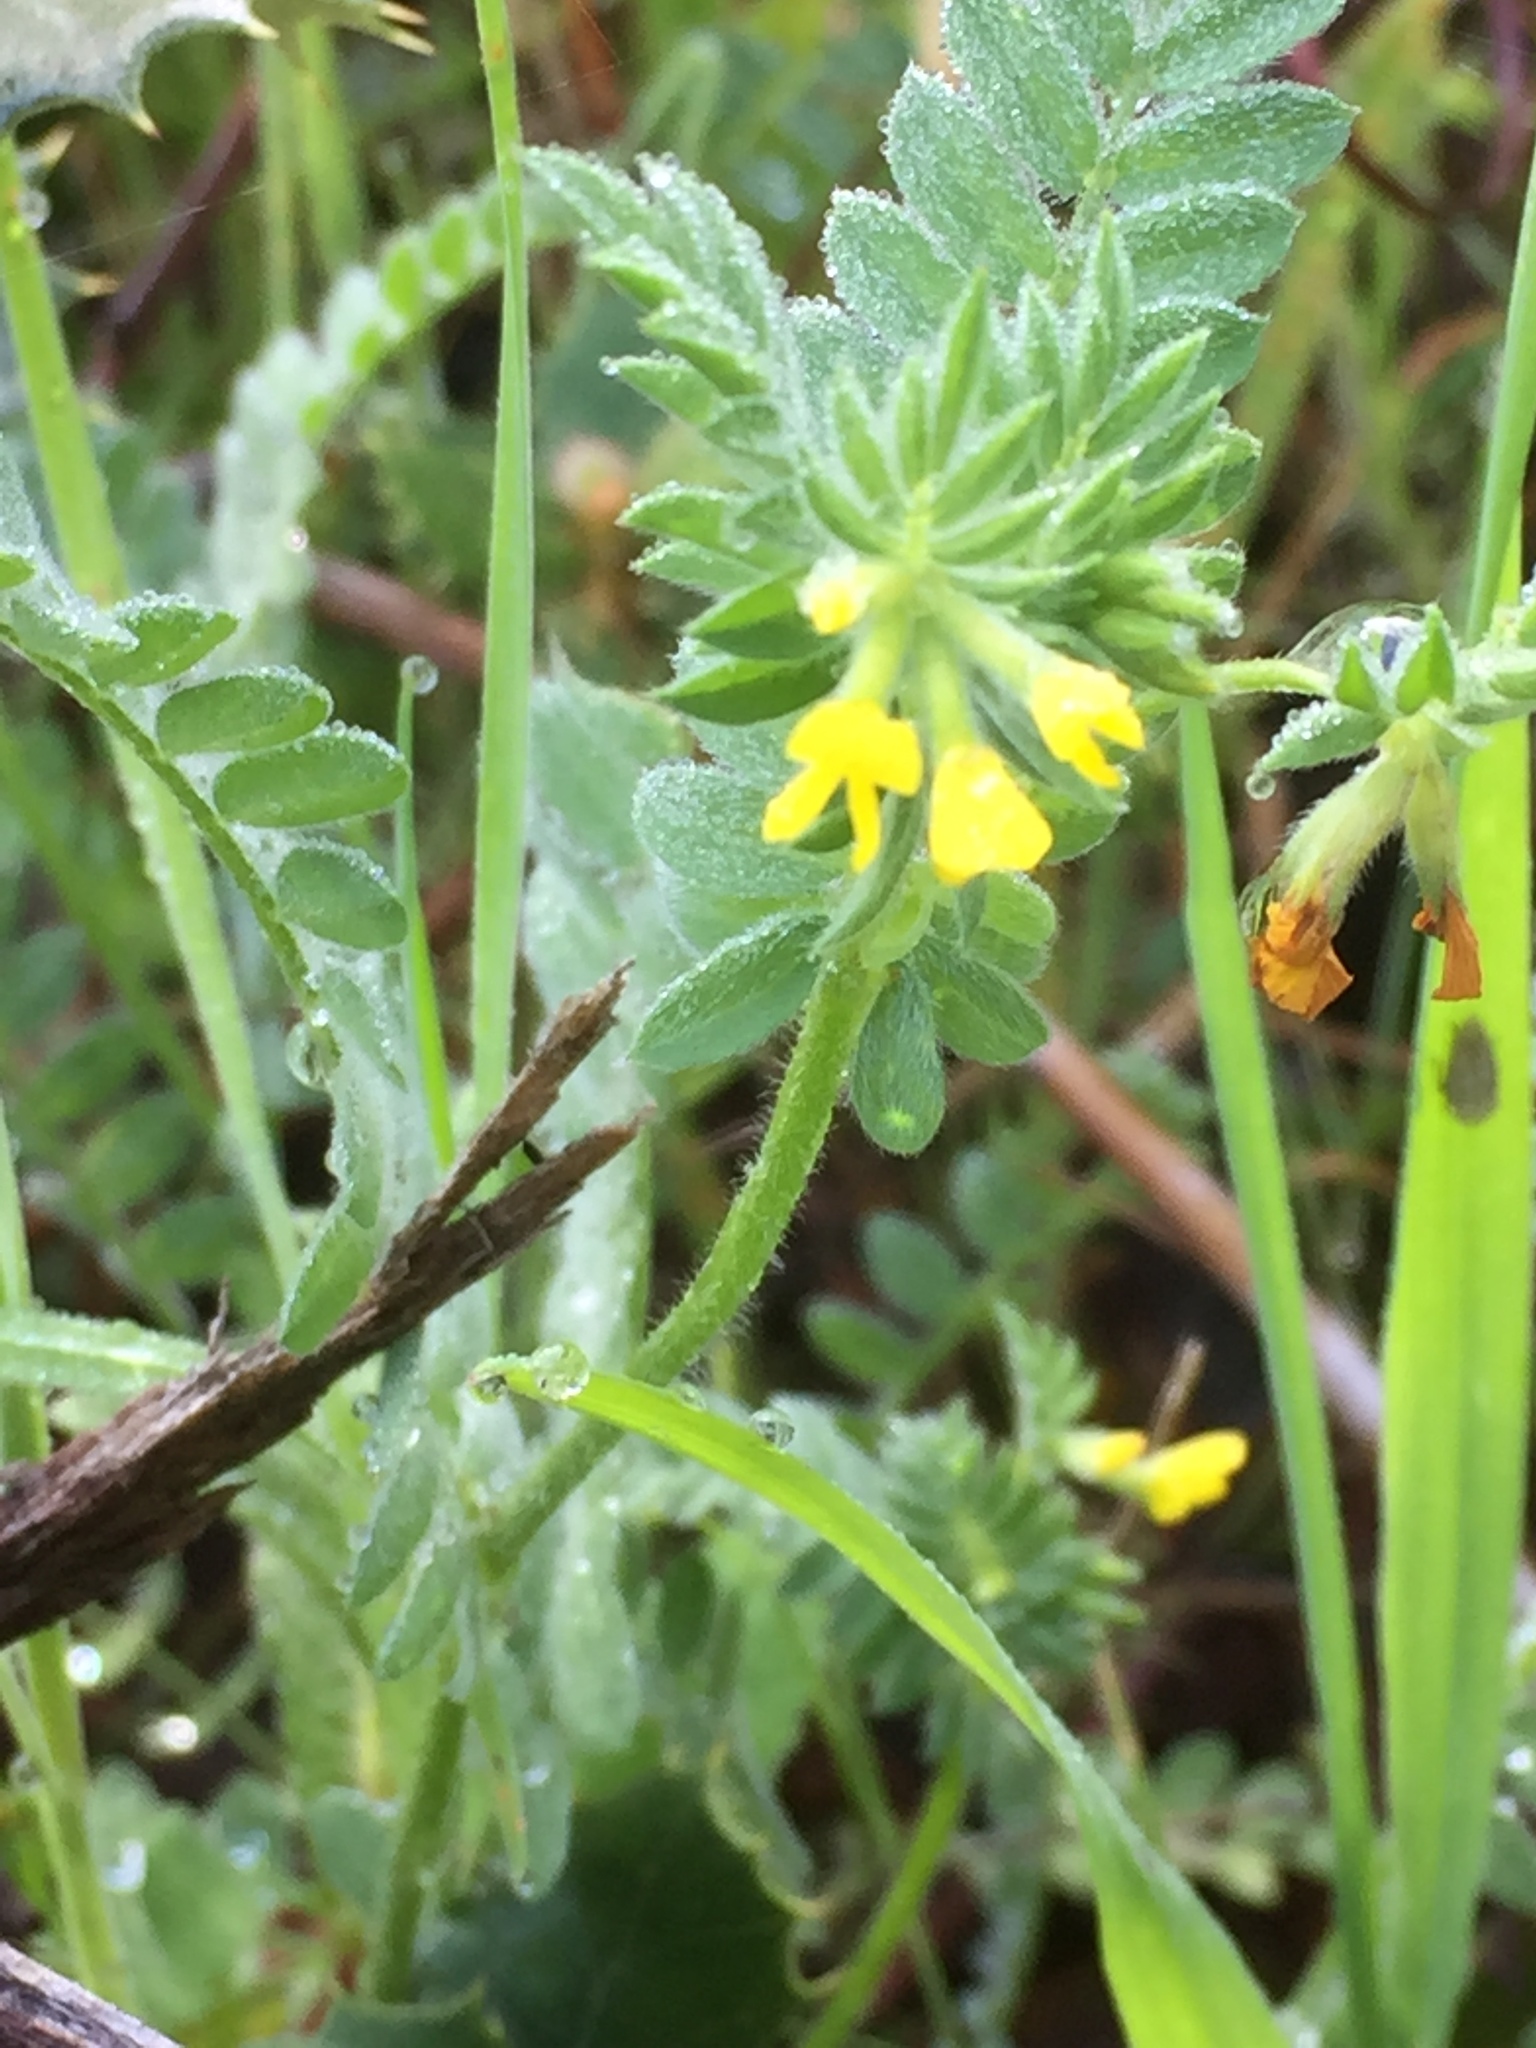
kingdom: Plantae
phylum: Tracheophyta
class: Magnoliopsida
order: Fabales
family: Fabaceae
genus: Ornithopus
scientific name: Ornithopus compressus
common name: Yellow serradella
